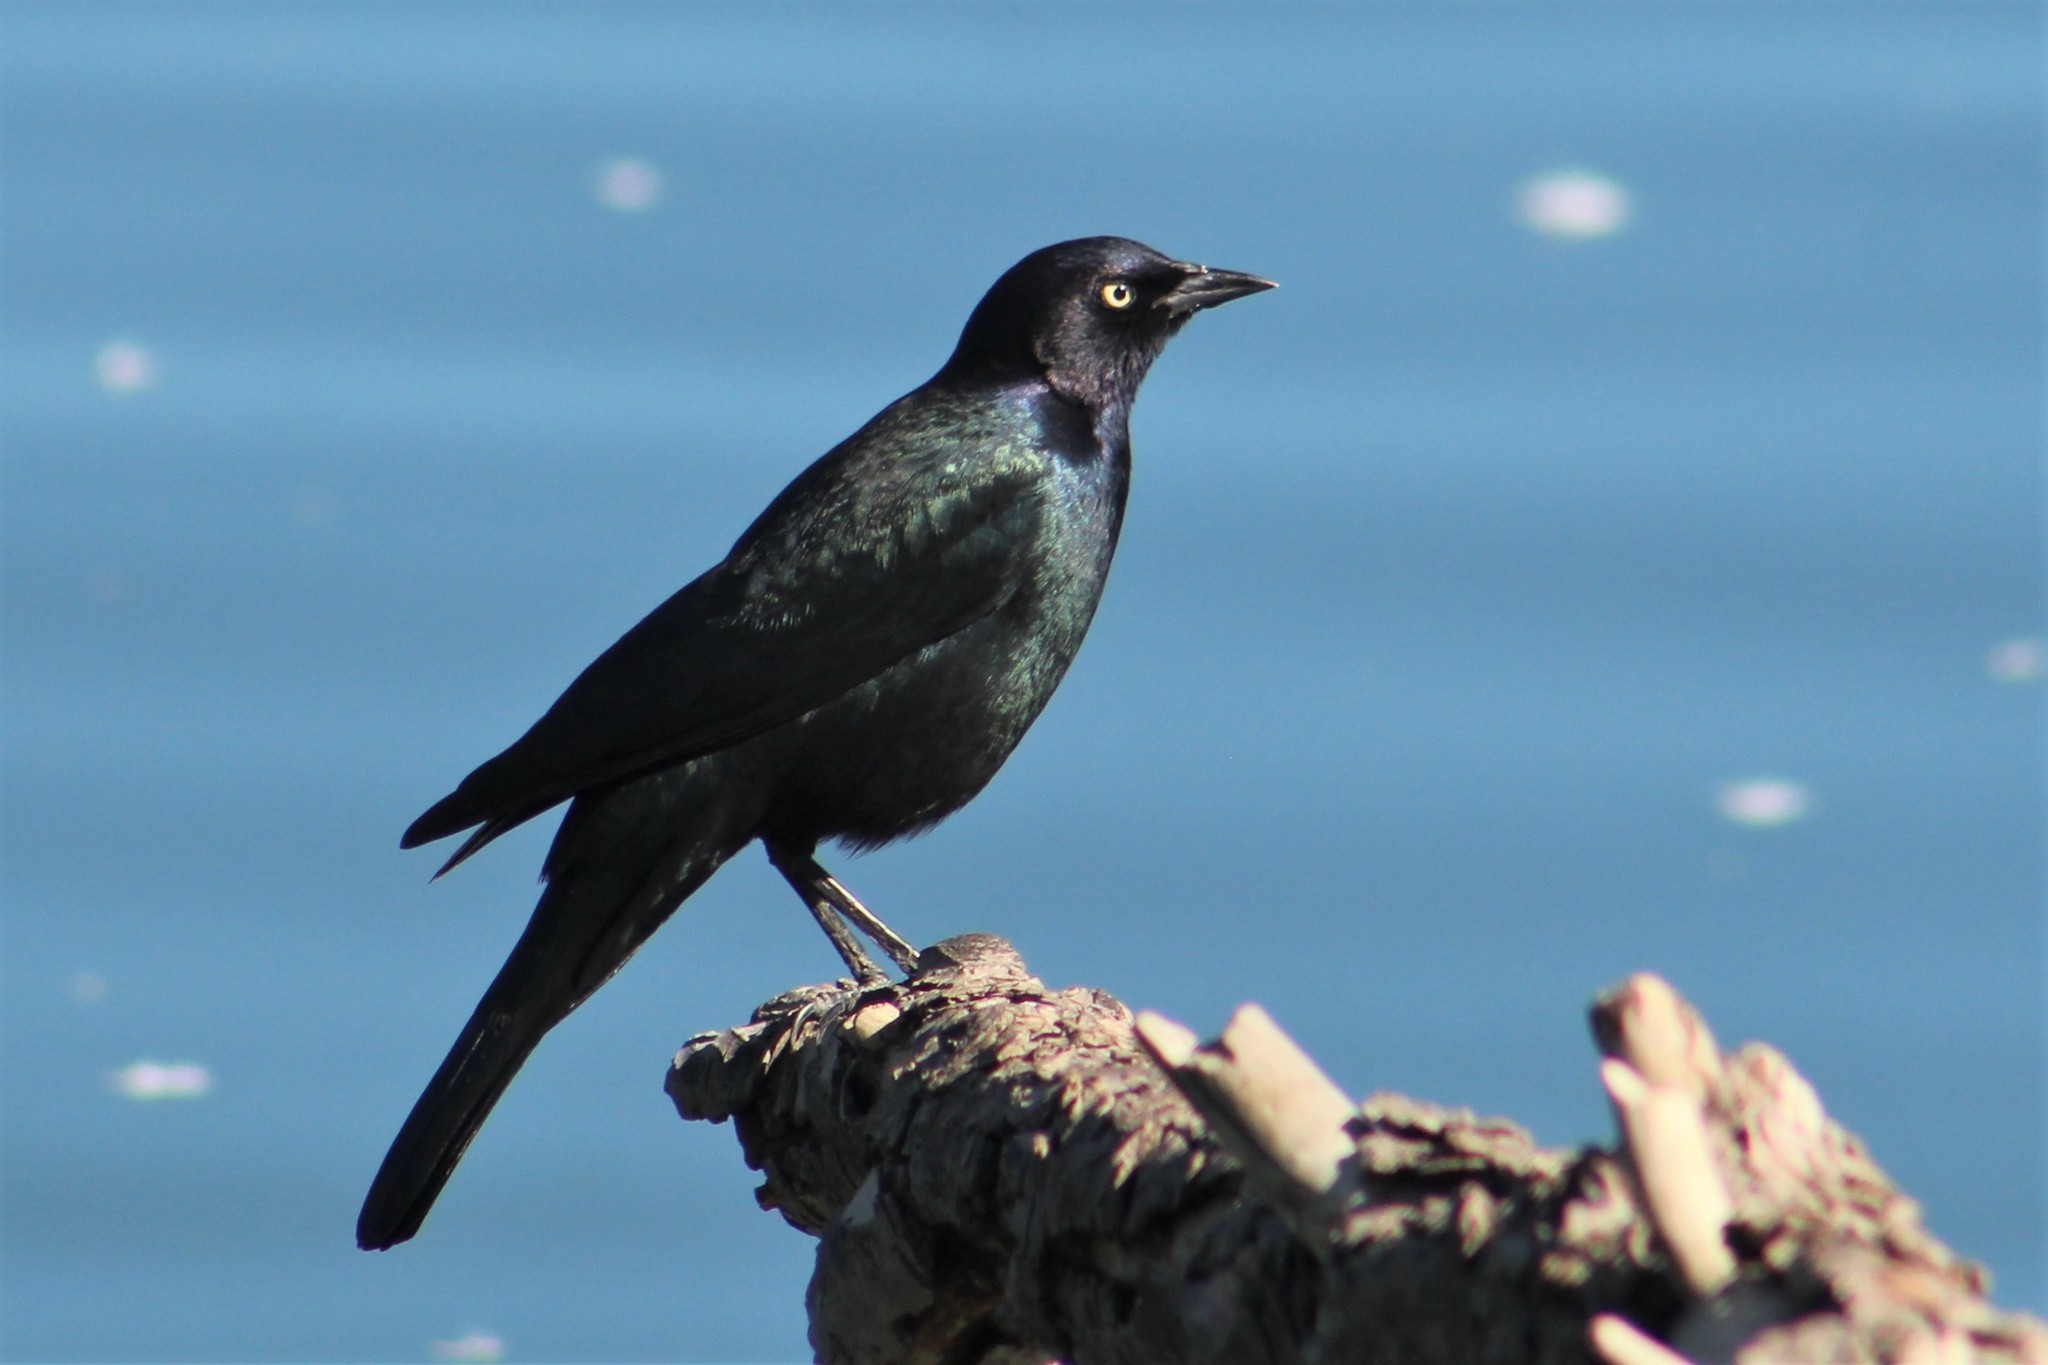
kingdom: Animalia
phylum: Chordata
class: Aves
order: Passeriformes
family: Icteridae
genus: Euphagus
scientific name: Euphagus cyanocephalus
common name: Brewer's blackbird
